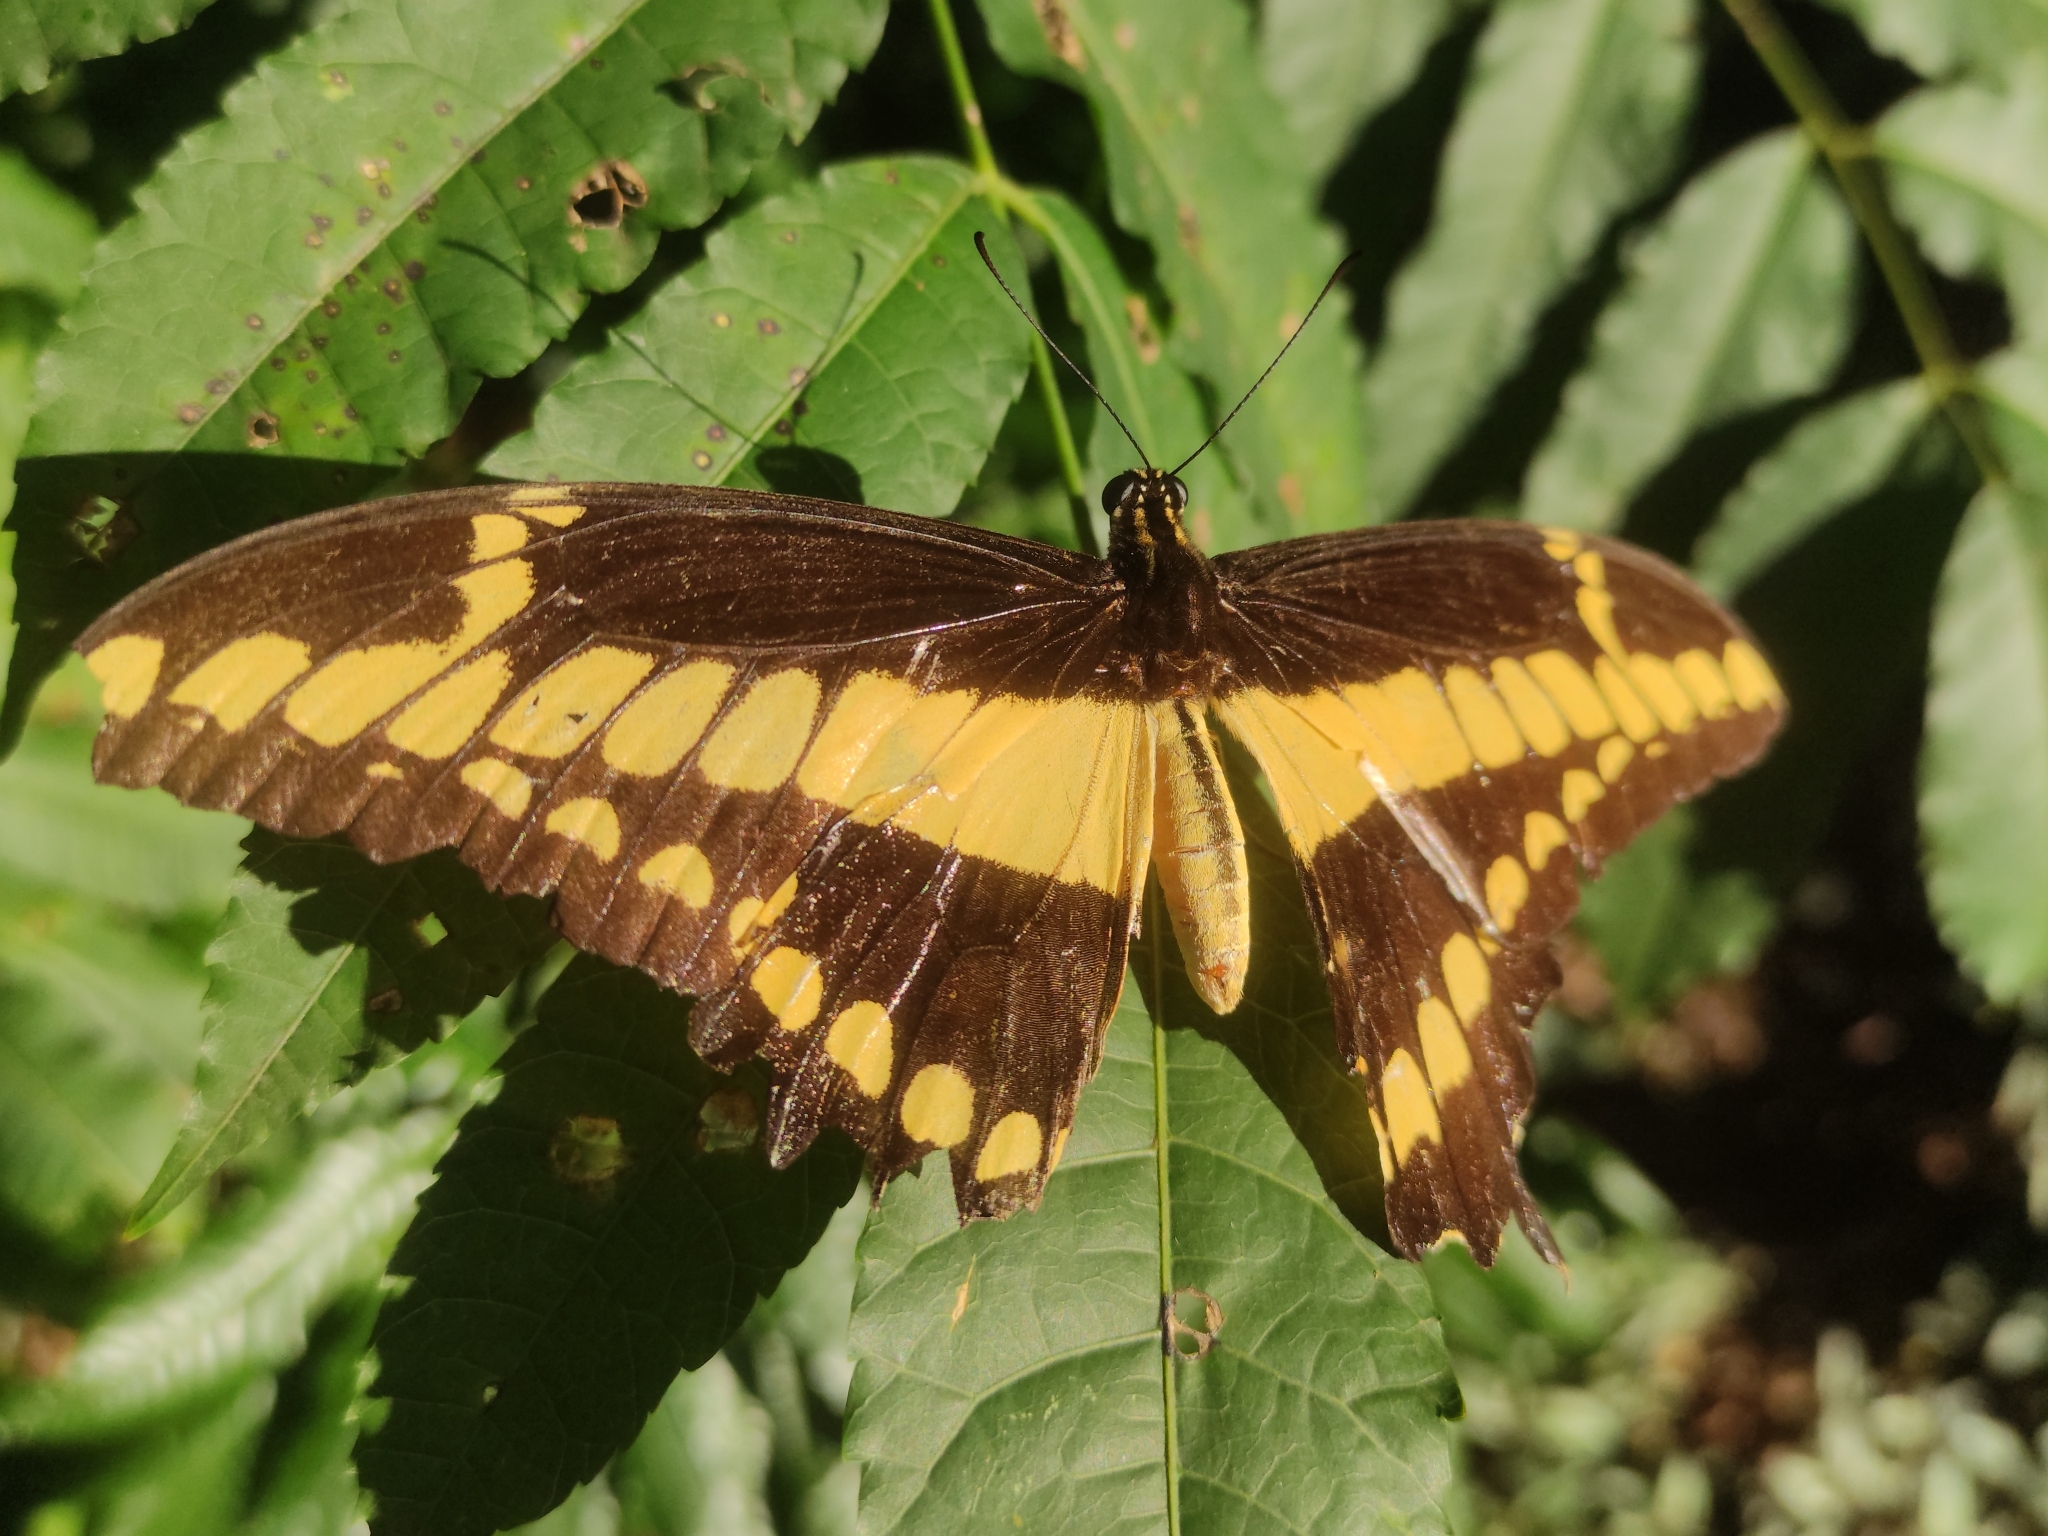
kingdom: Animalia
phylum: Arthropoda
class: Insecta
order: Lepidoptera
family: Papilionidae
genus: Papilio
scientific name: Papilio thoas
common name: King swallowtail
